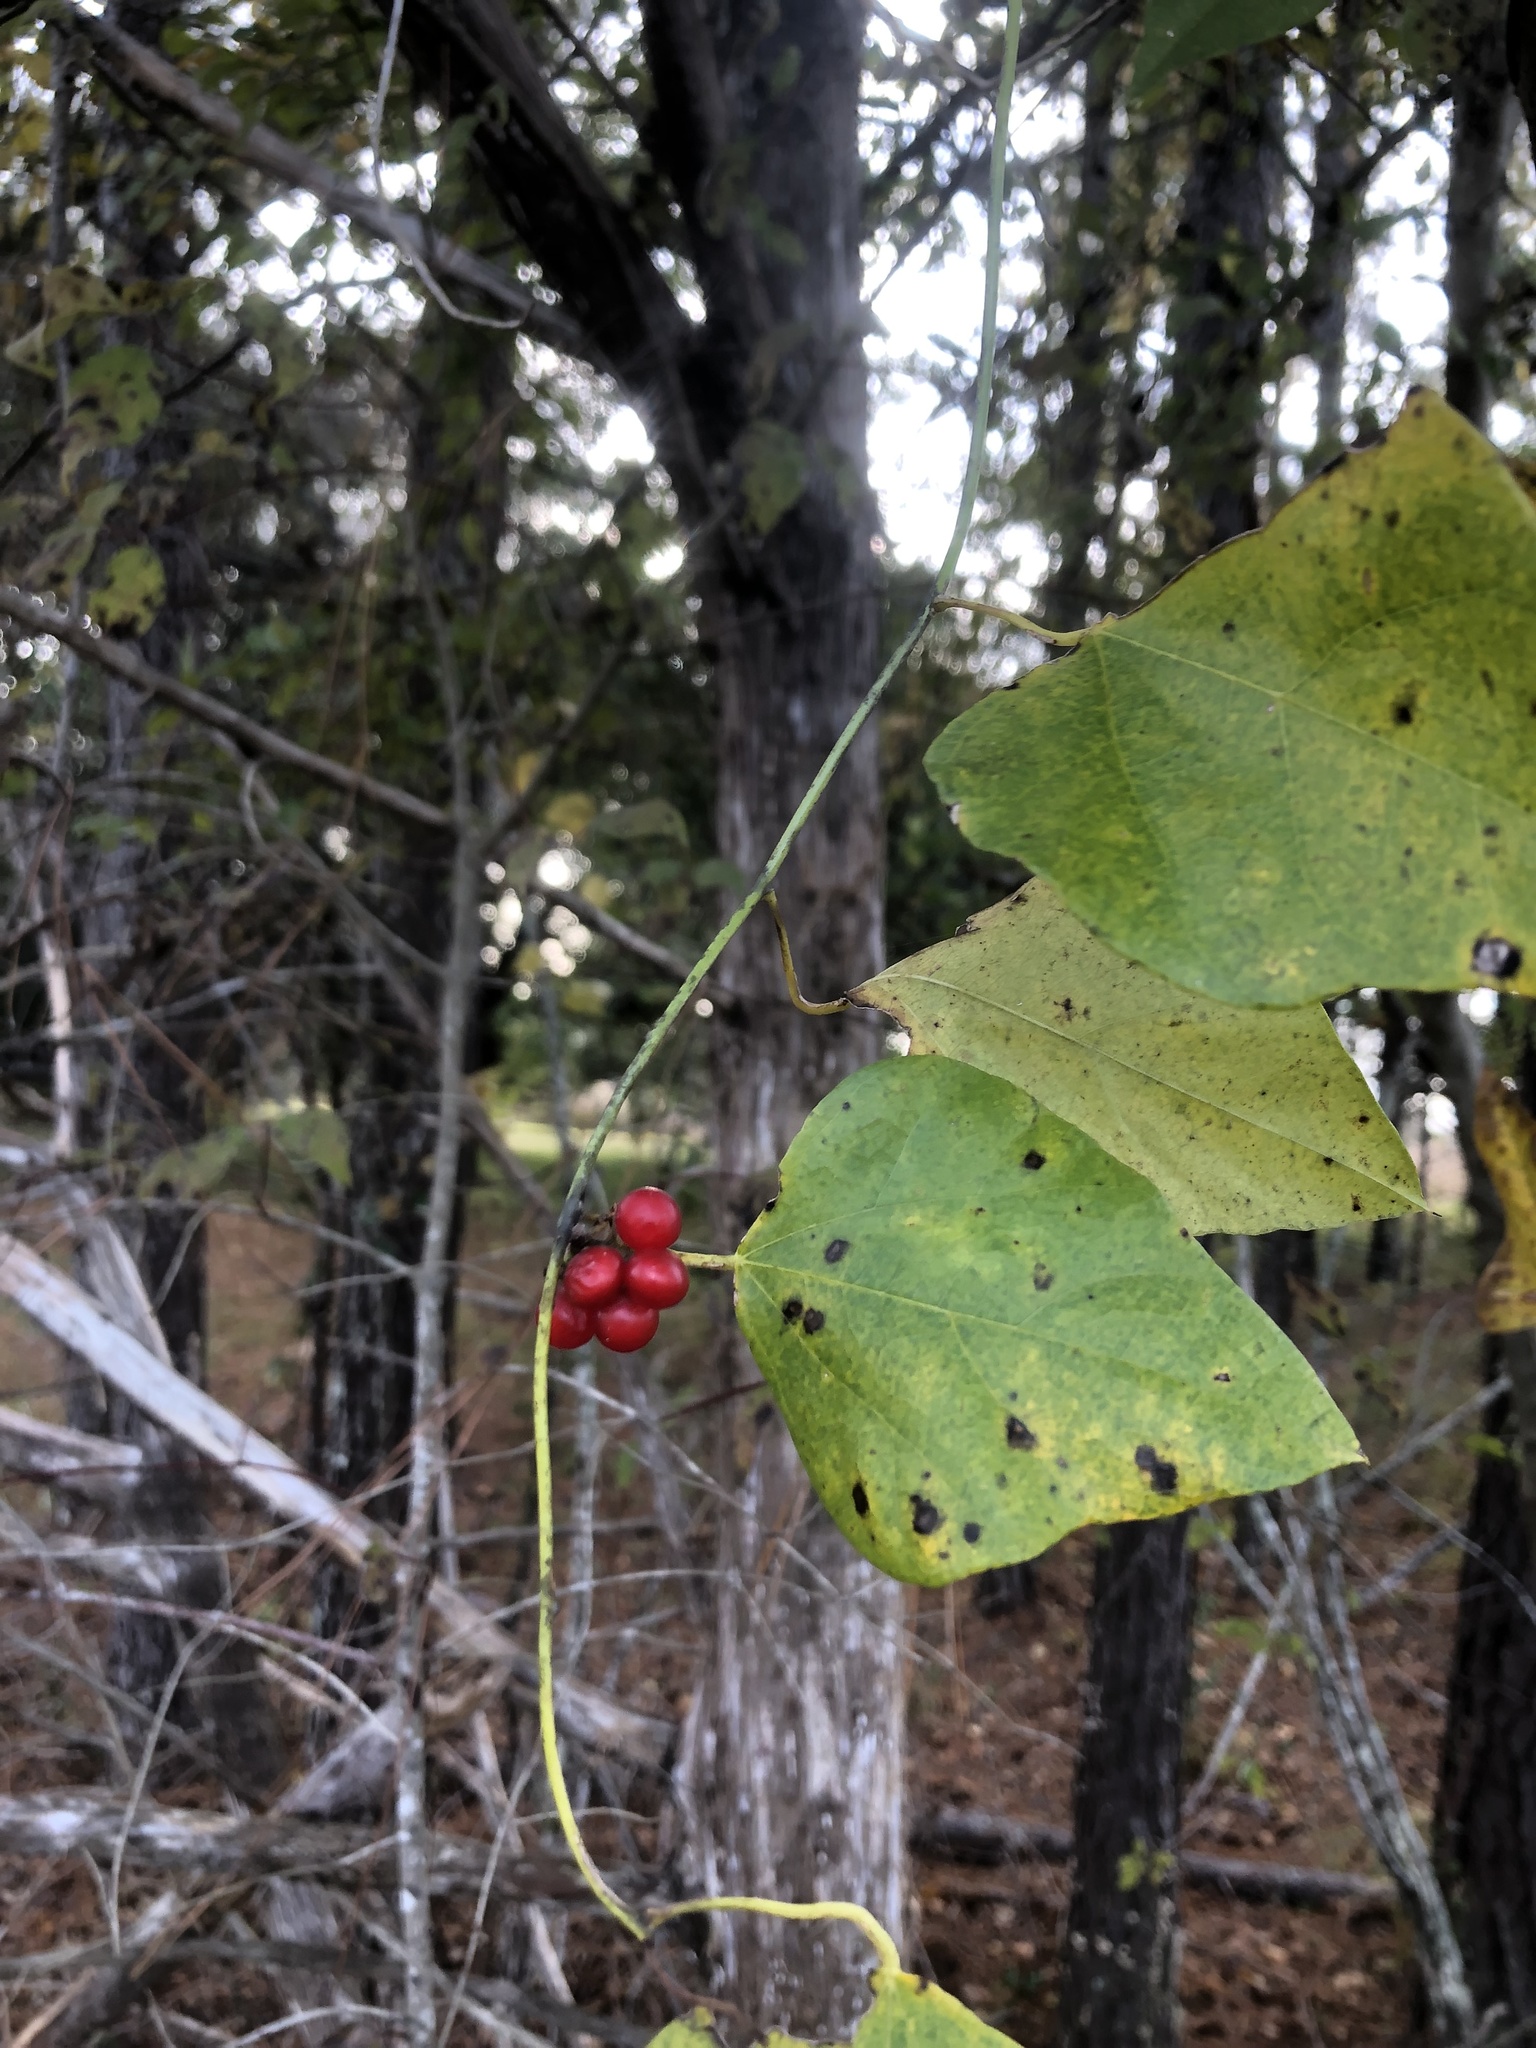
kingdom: Plantae
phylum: Tracheophyta
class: Magnoliopsida
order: Ranunculales
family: Menispermaceae
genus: Cocculus
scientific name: Cocculus carolinus
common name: Carolina moonseed
